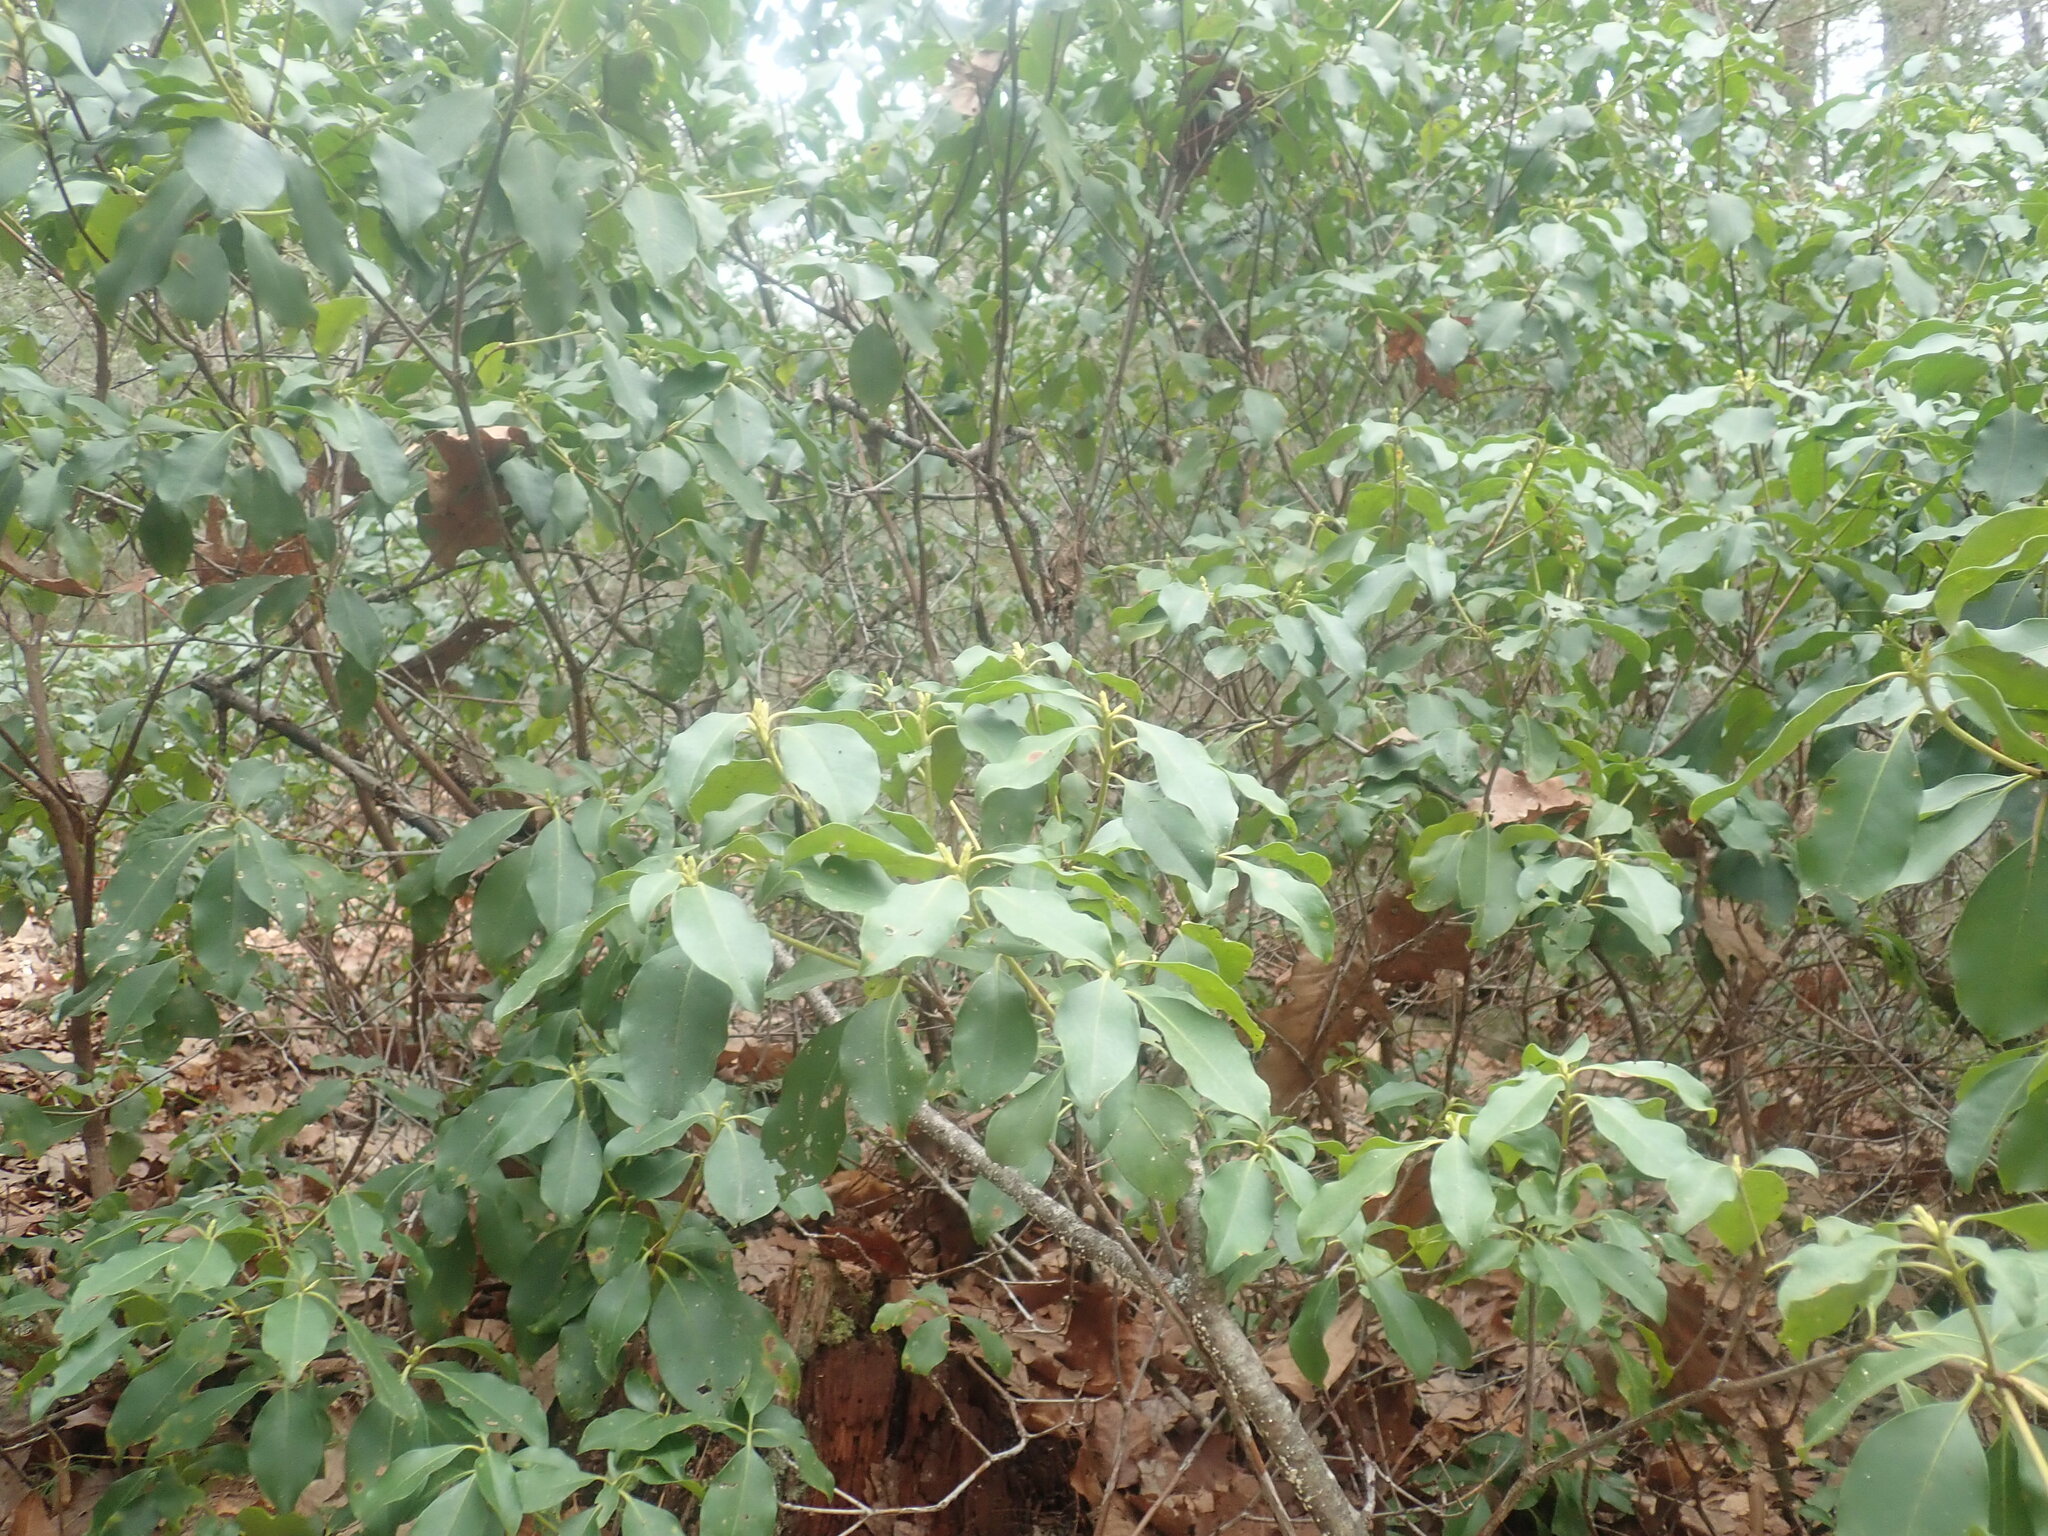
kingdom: Plantae
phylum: Tracheophyta
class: Magnoliopsida
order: Ericales
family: Ericaceae
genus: Kalmia
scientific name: Kalmia latifolia
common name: Mountain-laurel
